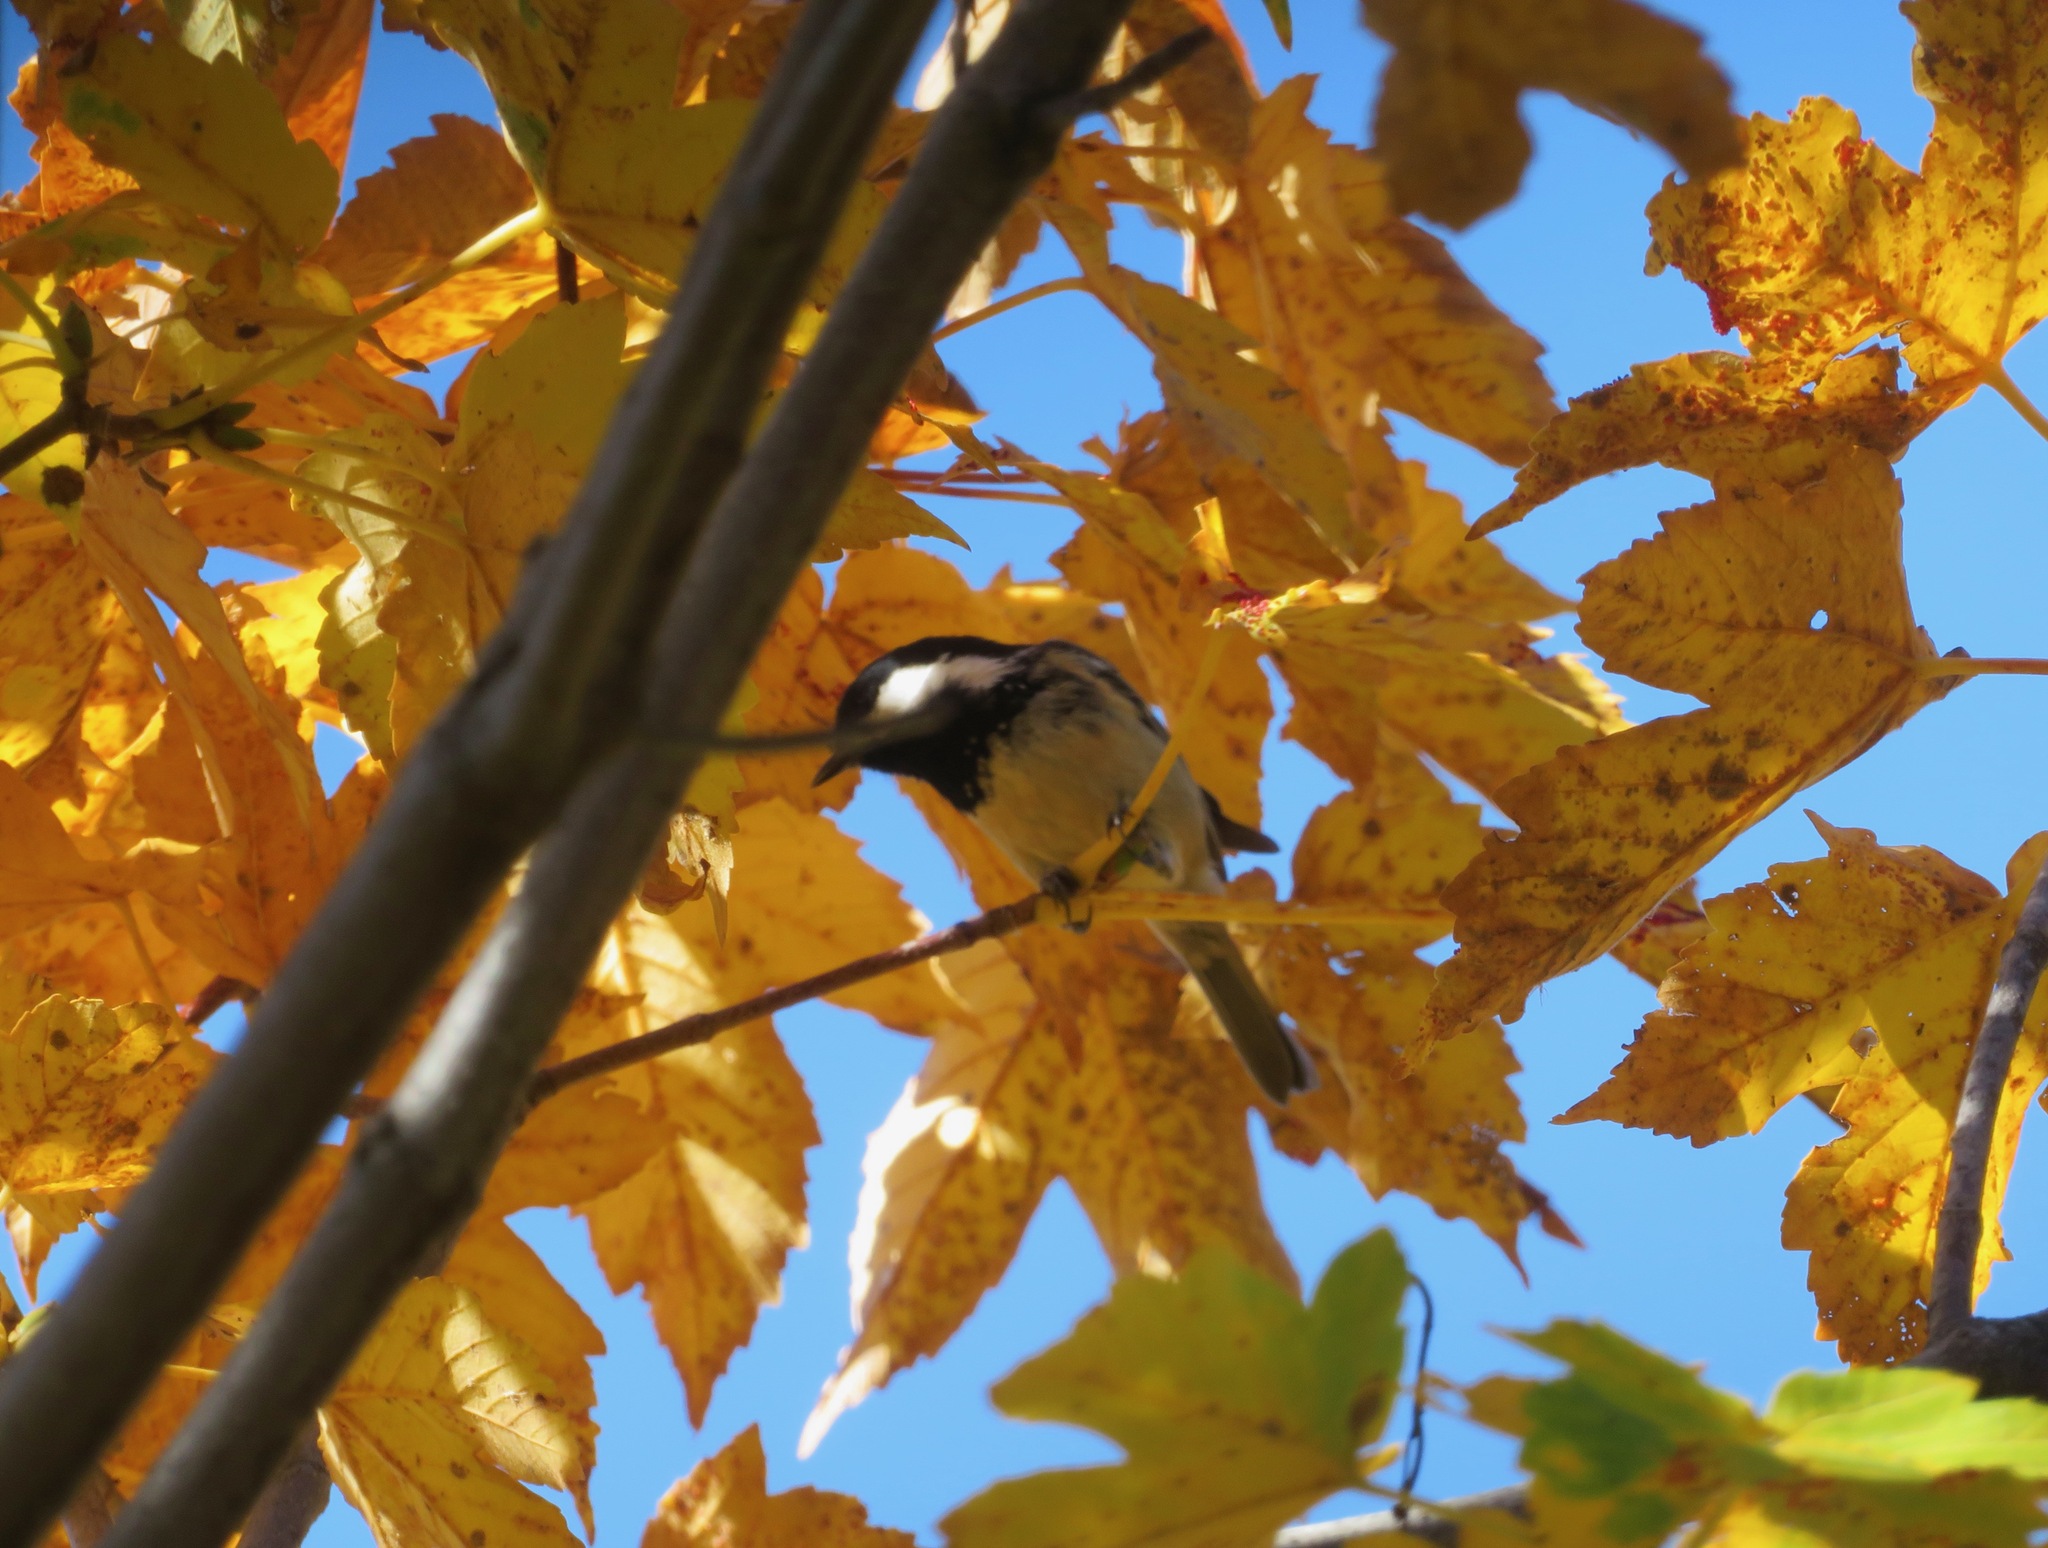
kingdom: Animalia
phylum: Chordata
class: Aves
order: Passeriformes
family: Paridae
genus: Periparus
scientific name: Periparus ater
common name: Coal tit
